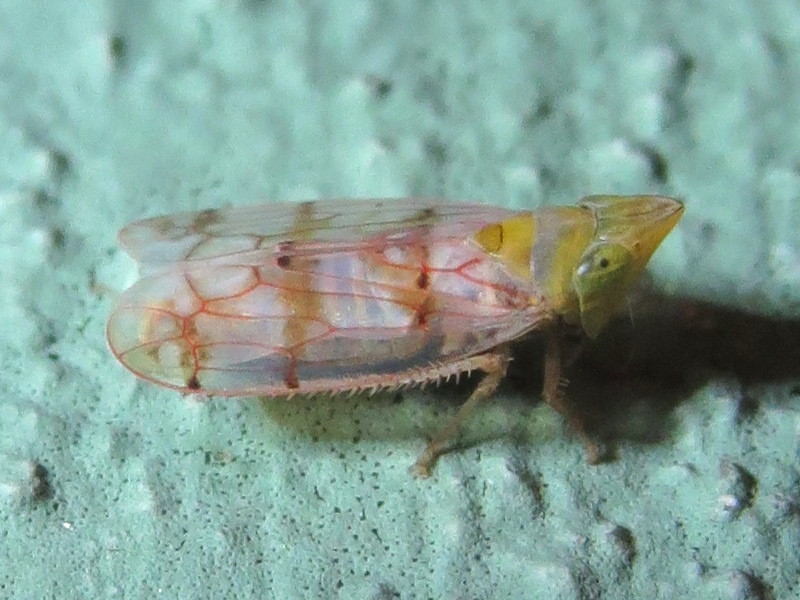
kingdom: Animalia
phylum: Arthropoda
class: Insecta
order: Hemiptera
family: Cicadellidae
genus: Japananus
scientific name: Japananus hyalinus
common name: The japanese maple leafhopper
